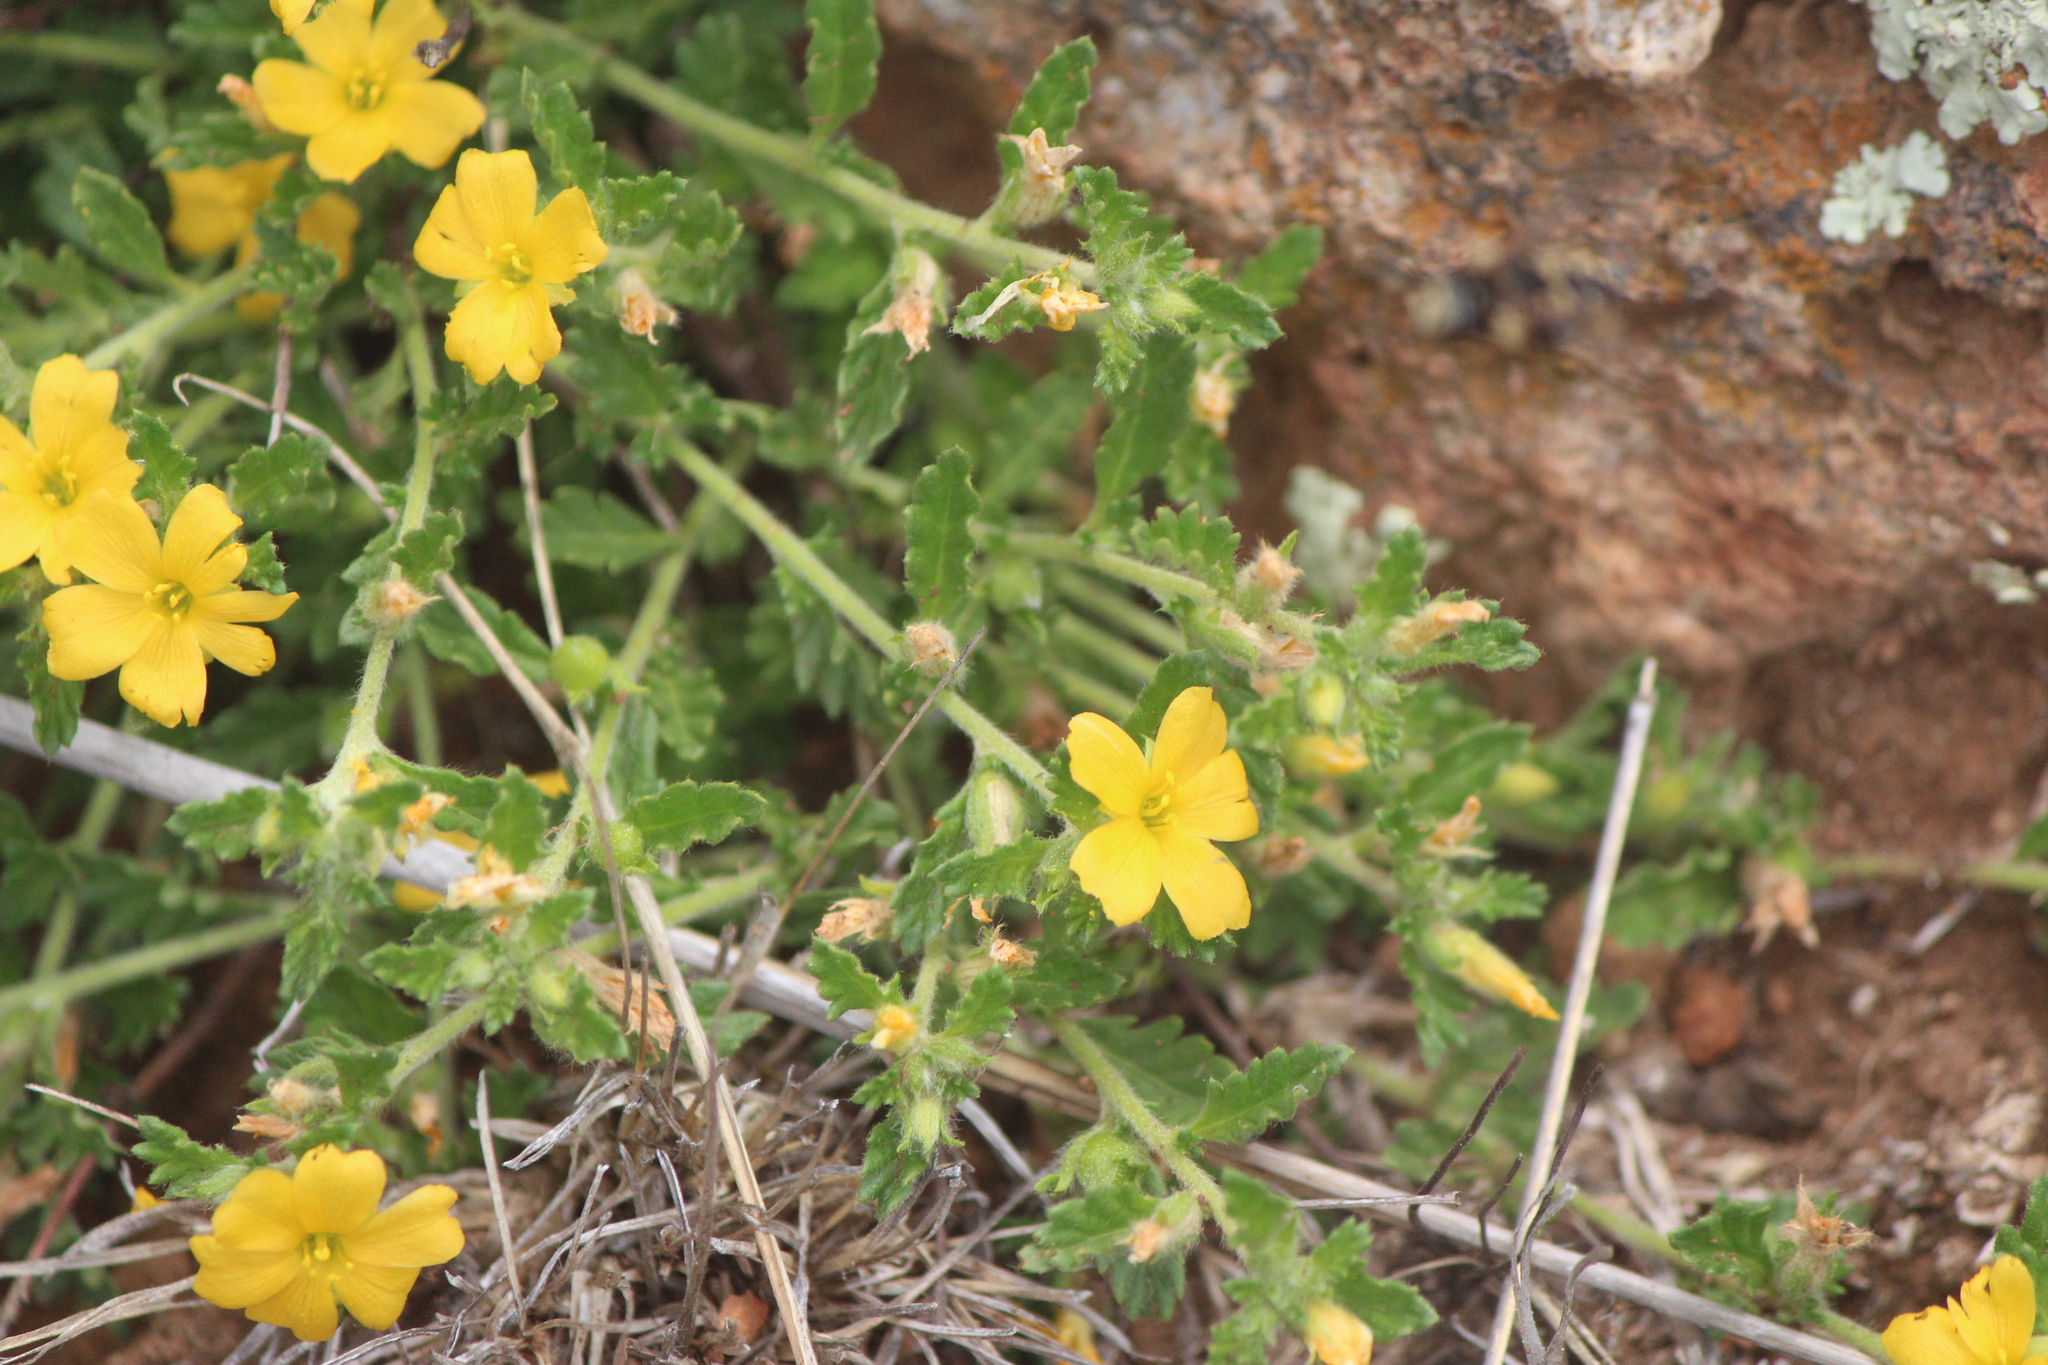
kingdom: Plantae
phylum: Tracheophyta
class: Magnoliopsida
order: Malpighiales
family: Turneraceae
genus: Turnera
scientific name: Turnera diffusa
